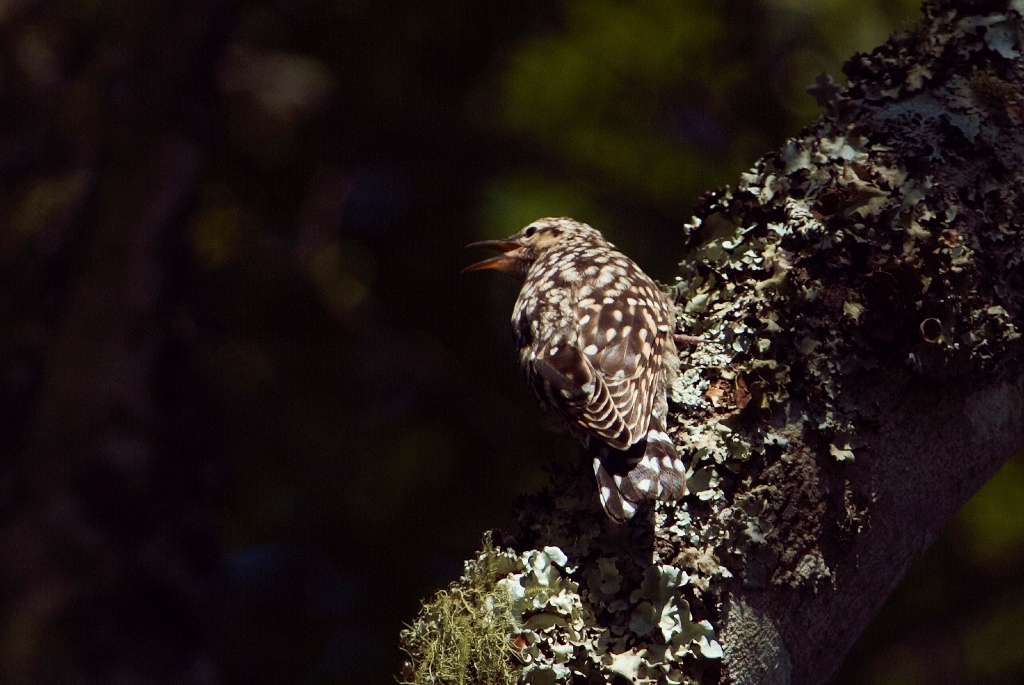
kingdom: Animalia
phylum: Chordata
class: Aves
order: Passeriformes
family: Certhiidae
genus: Salpornis
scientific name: Salpornis salvadori
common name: African spotted creeper
